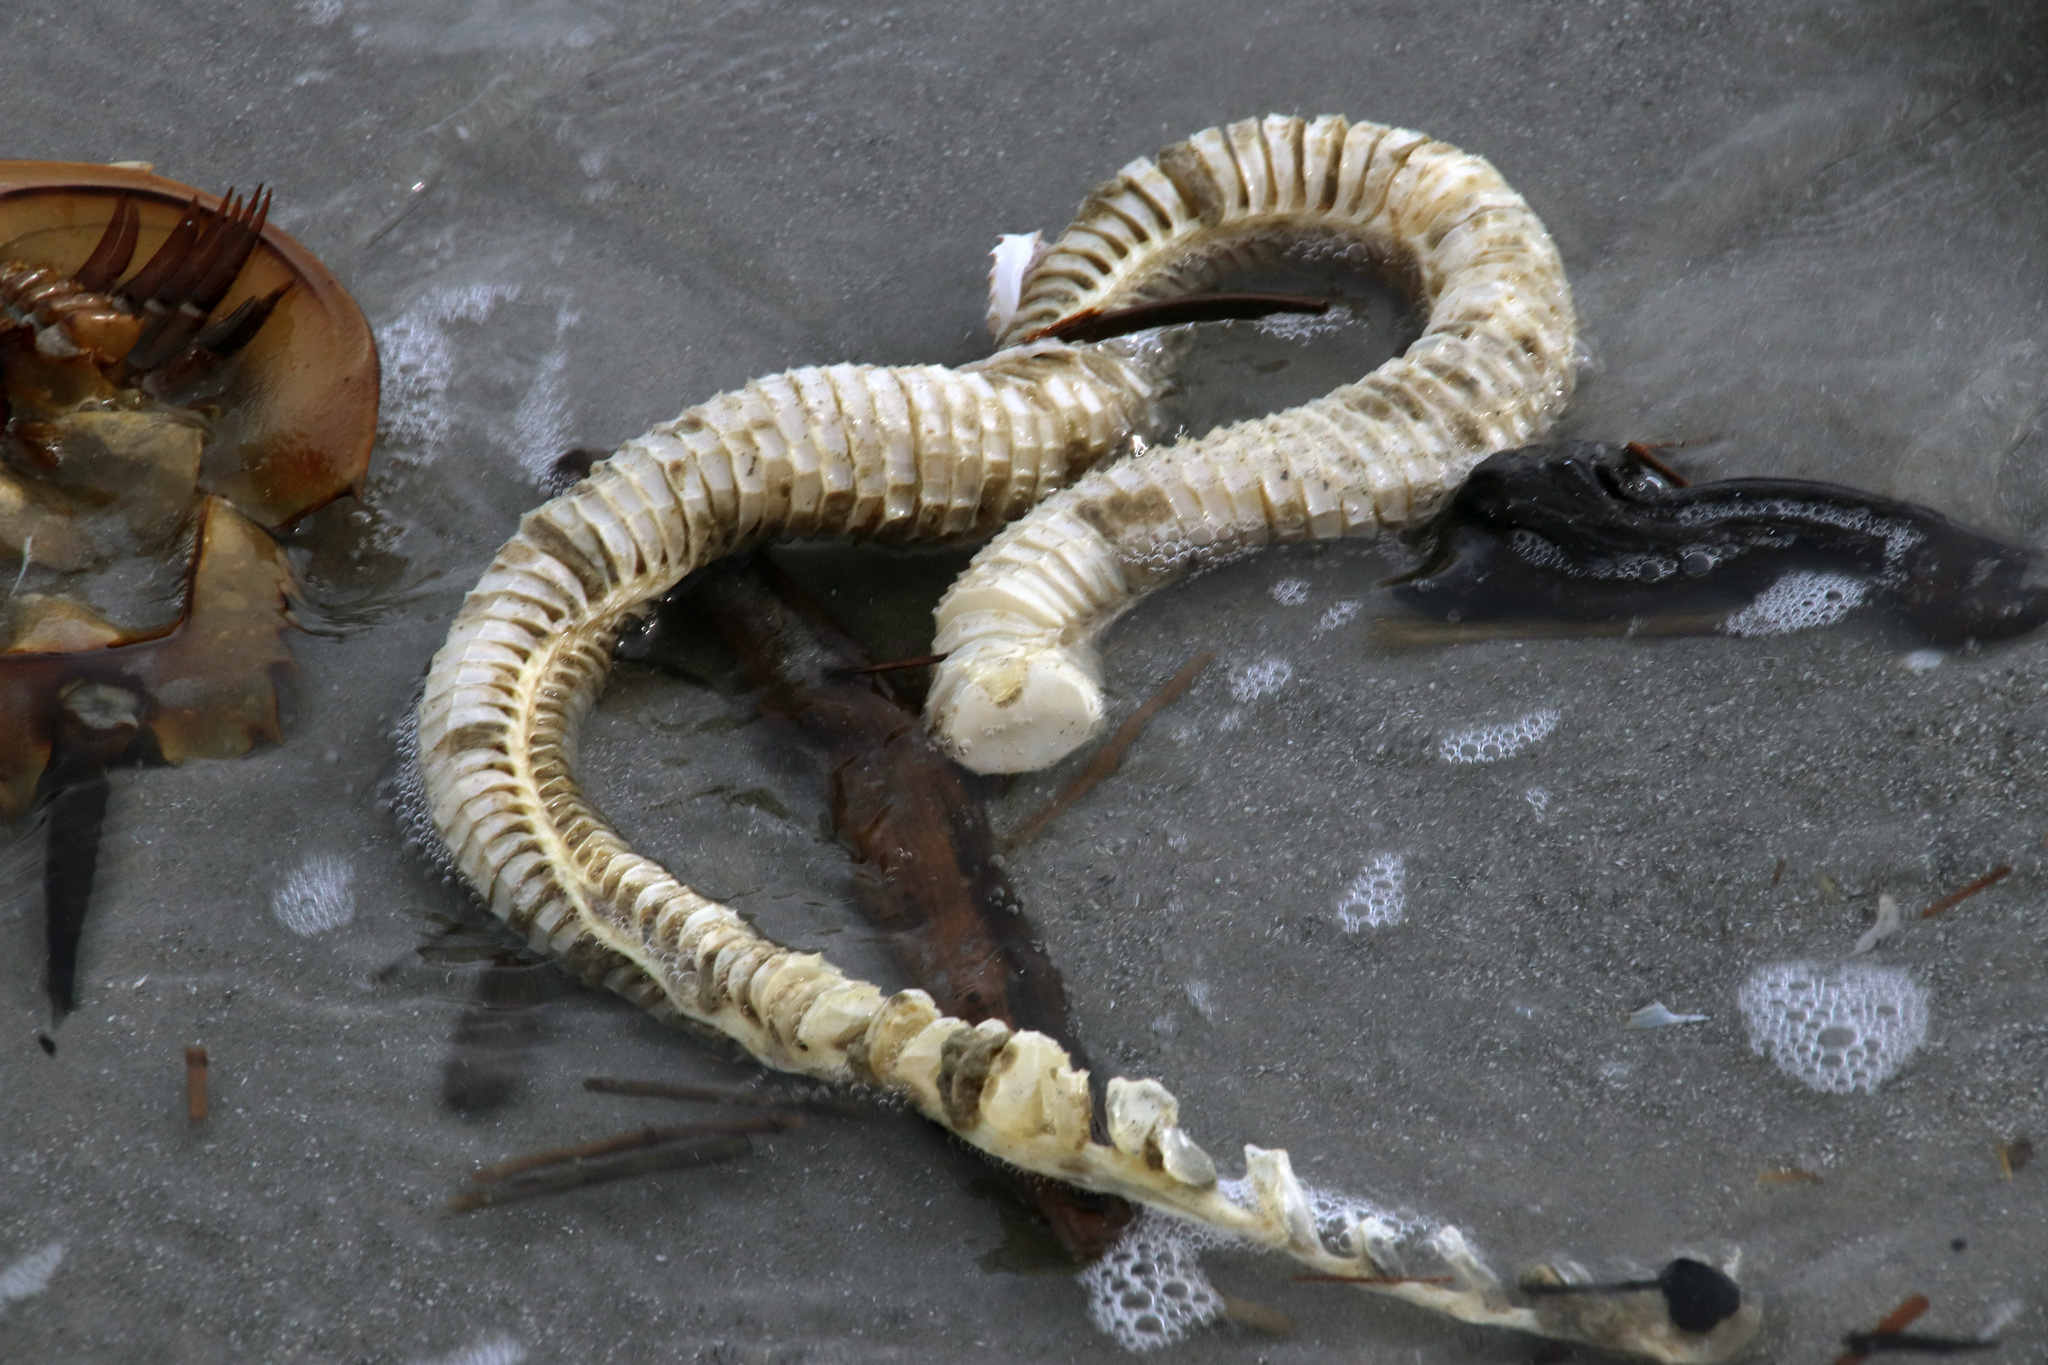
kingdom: Animalia
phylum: Mollusca
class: Gastropoda
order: Neogastropoda
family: Busyconidae
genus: Busycon
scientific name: Busycon carica
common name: Knobbed whelk
